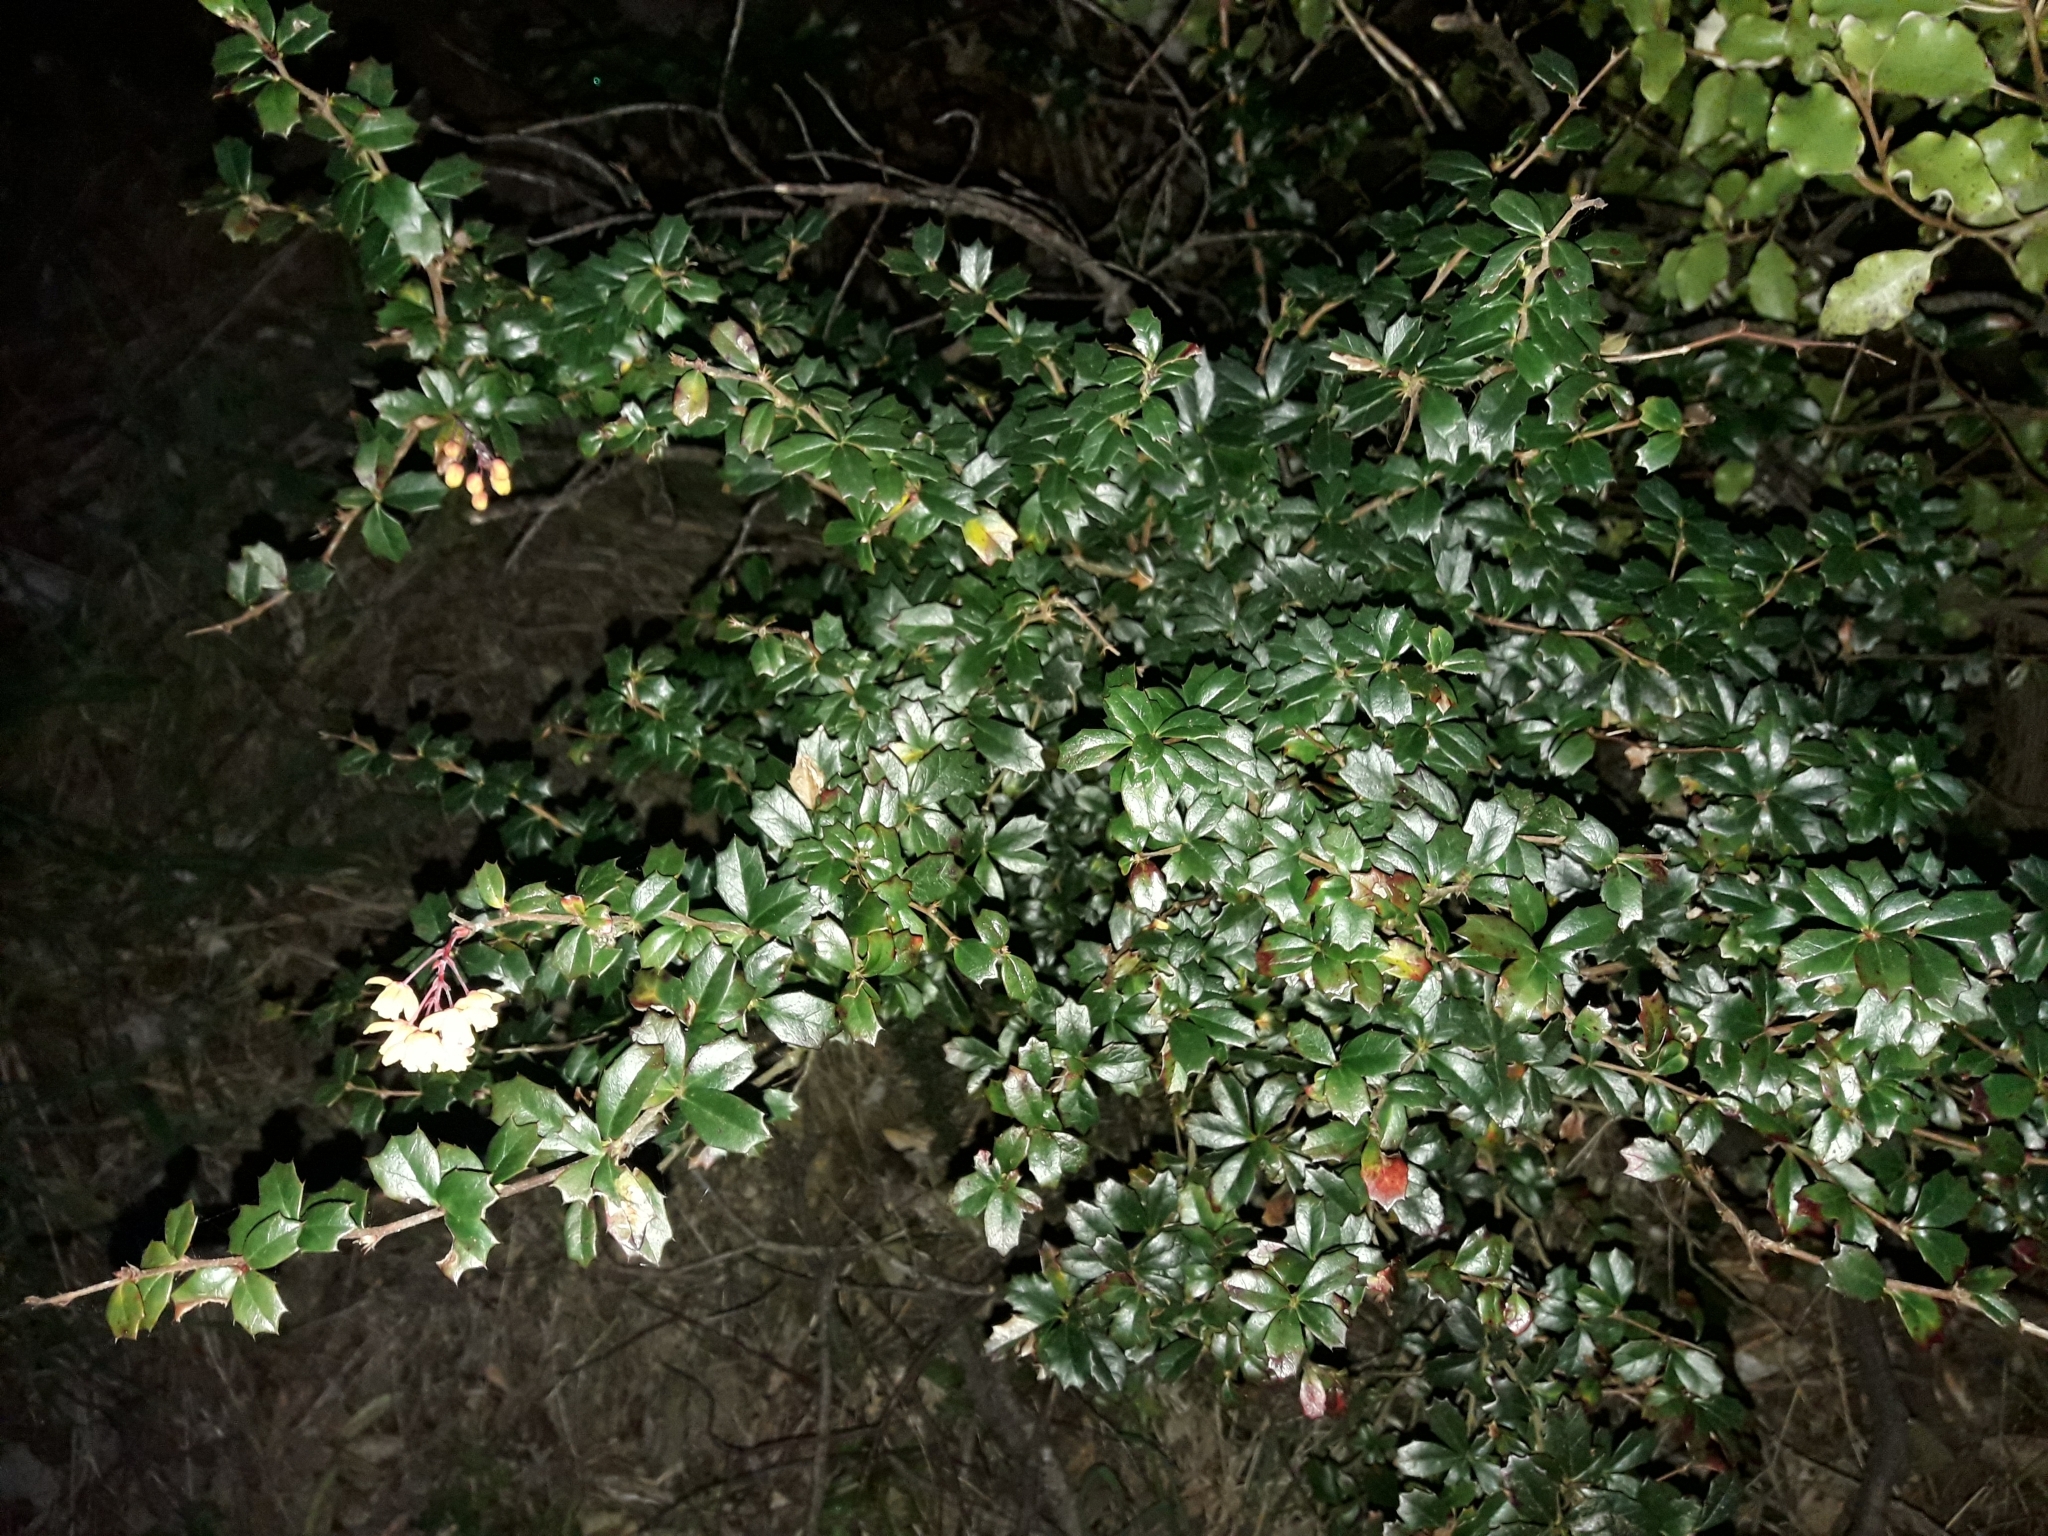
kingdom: Plantae
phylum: Tracheophyta
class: Magnoliopsida
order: Ranunculales
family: Berberidaceae
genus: Berberis
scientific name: Berberis darwinii
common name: Darwin's barberry
